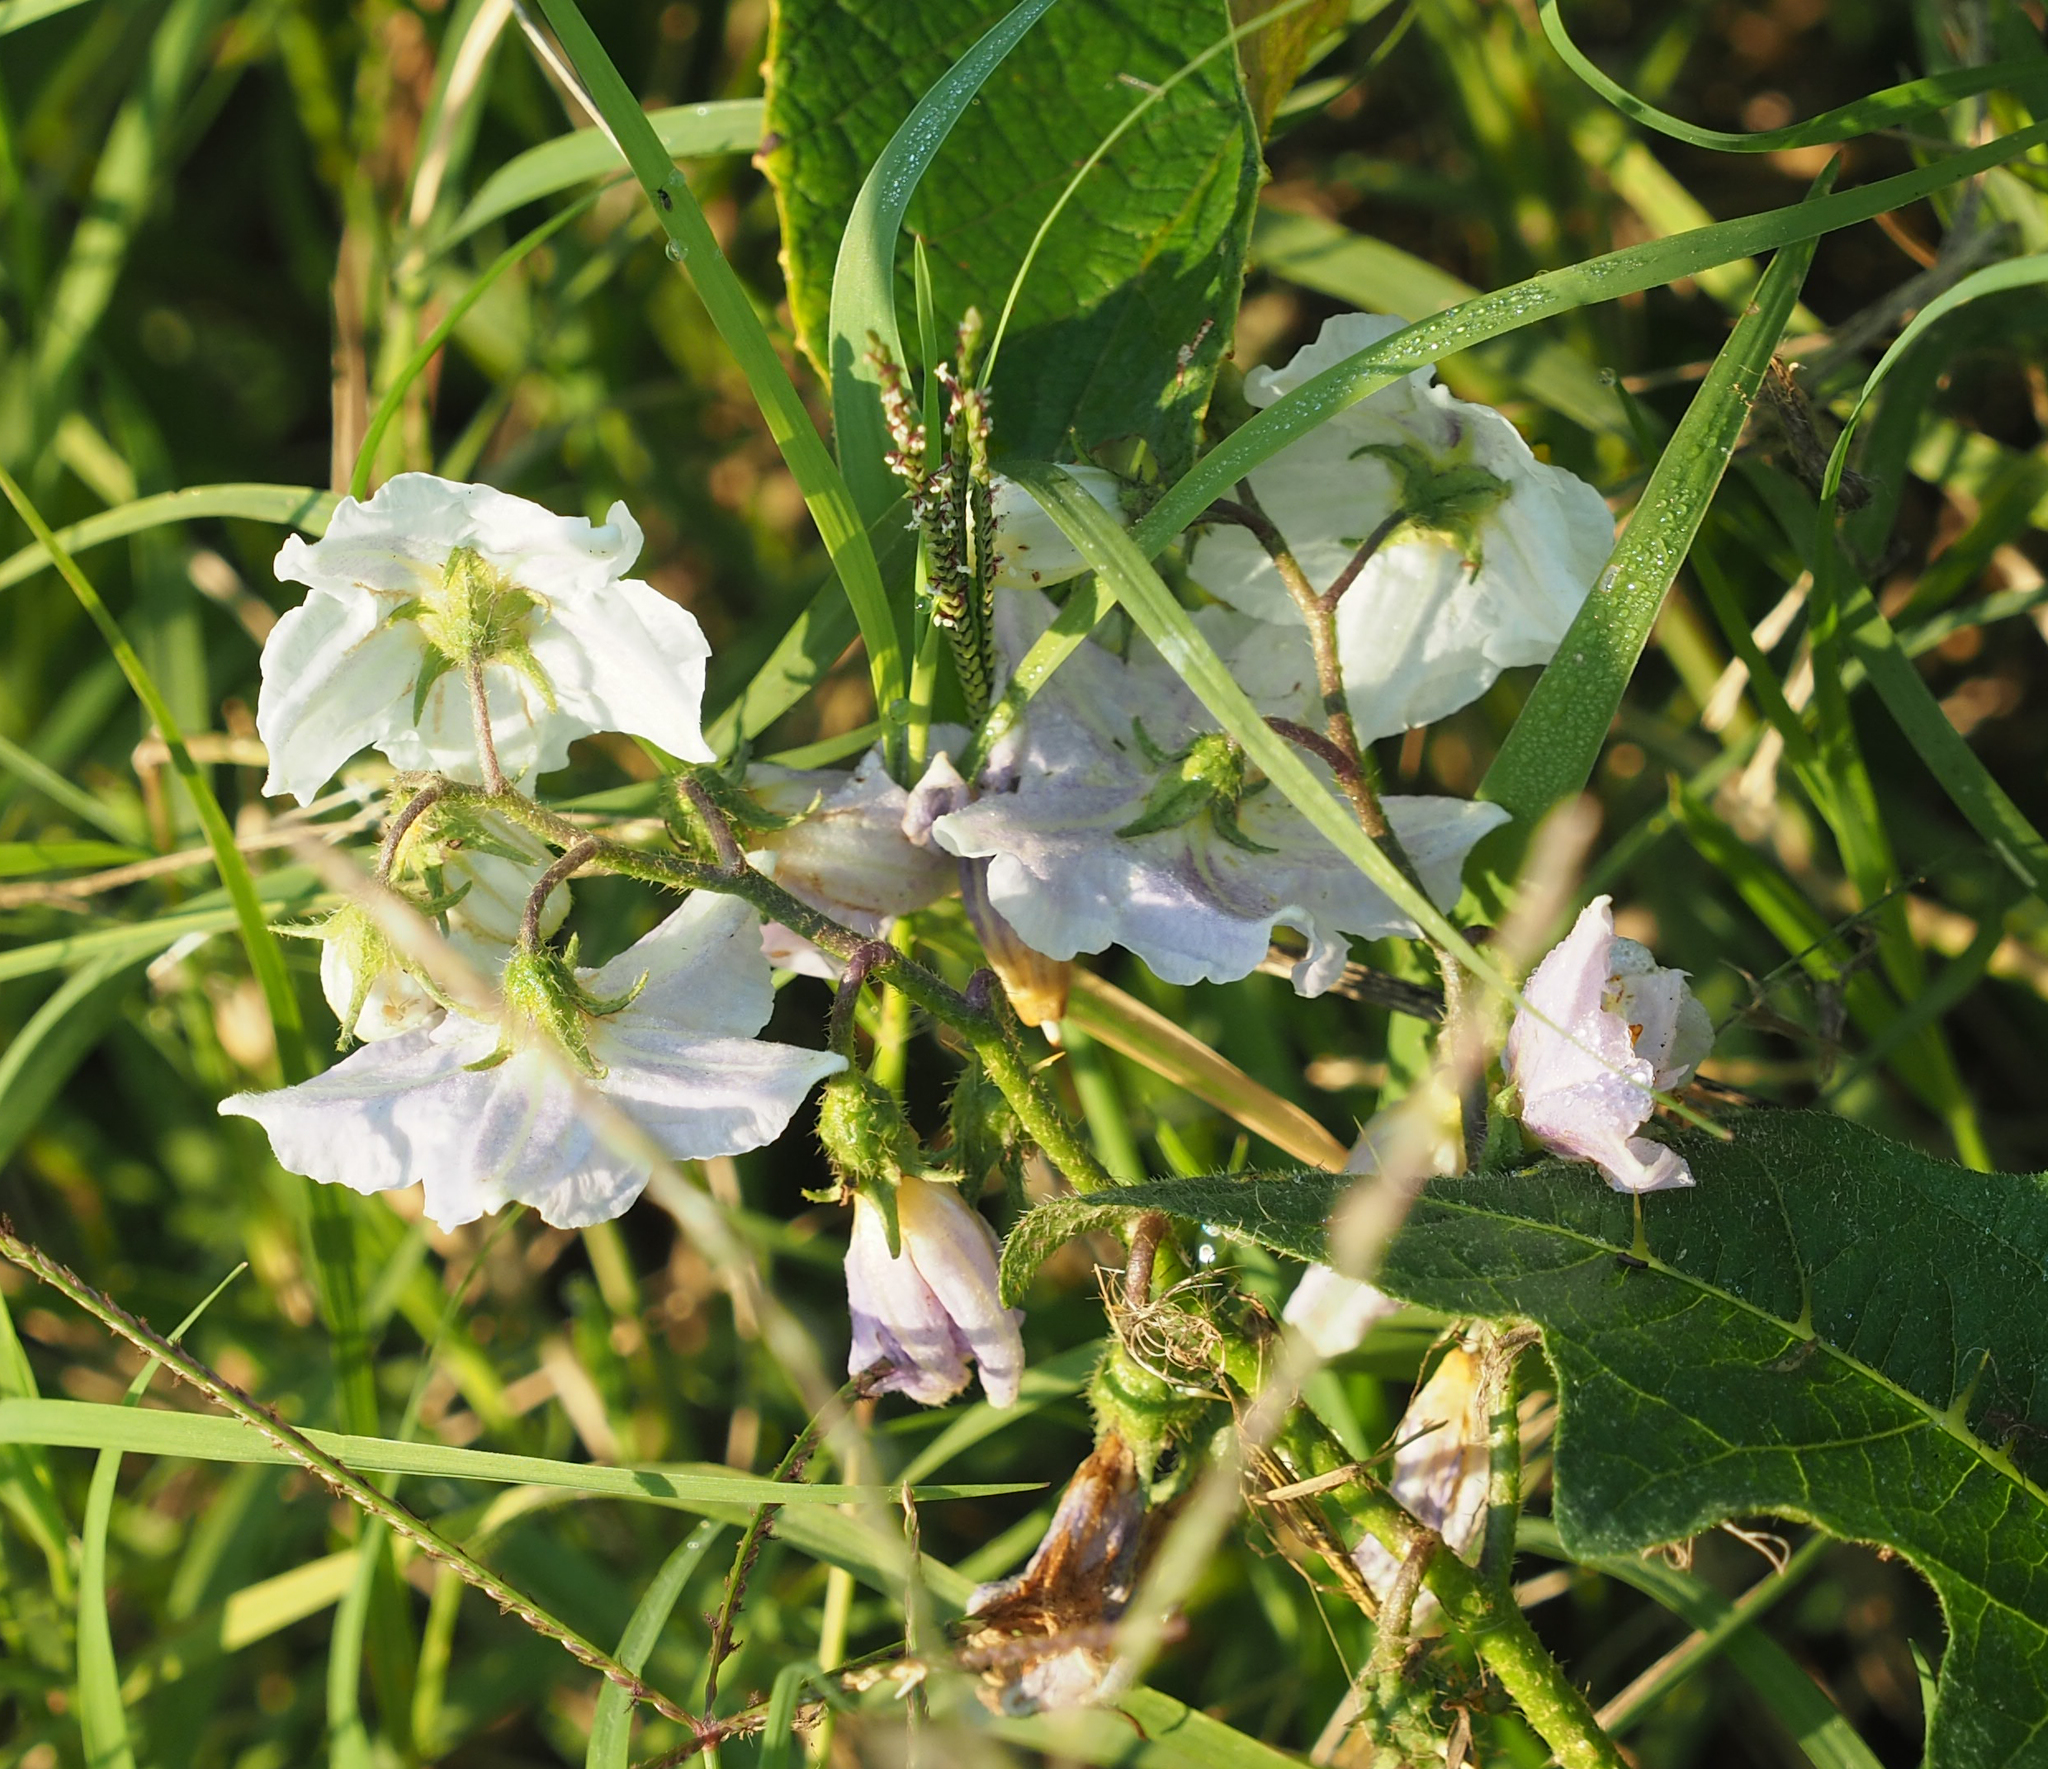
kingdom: Plantae
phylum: Tracheophyta
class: Magnoliopsida
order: Solanales
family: Solanaceae
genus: Solanum
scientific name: Solanum carolinense
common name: Horse-nettle
